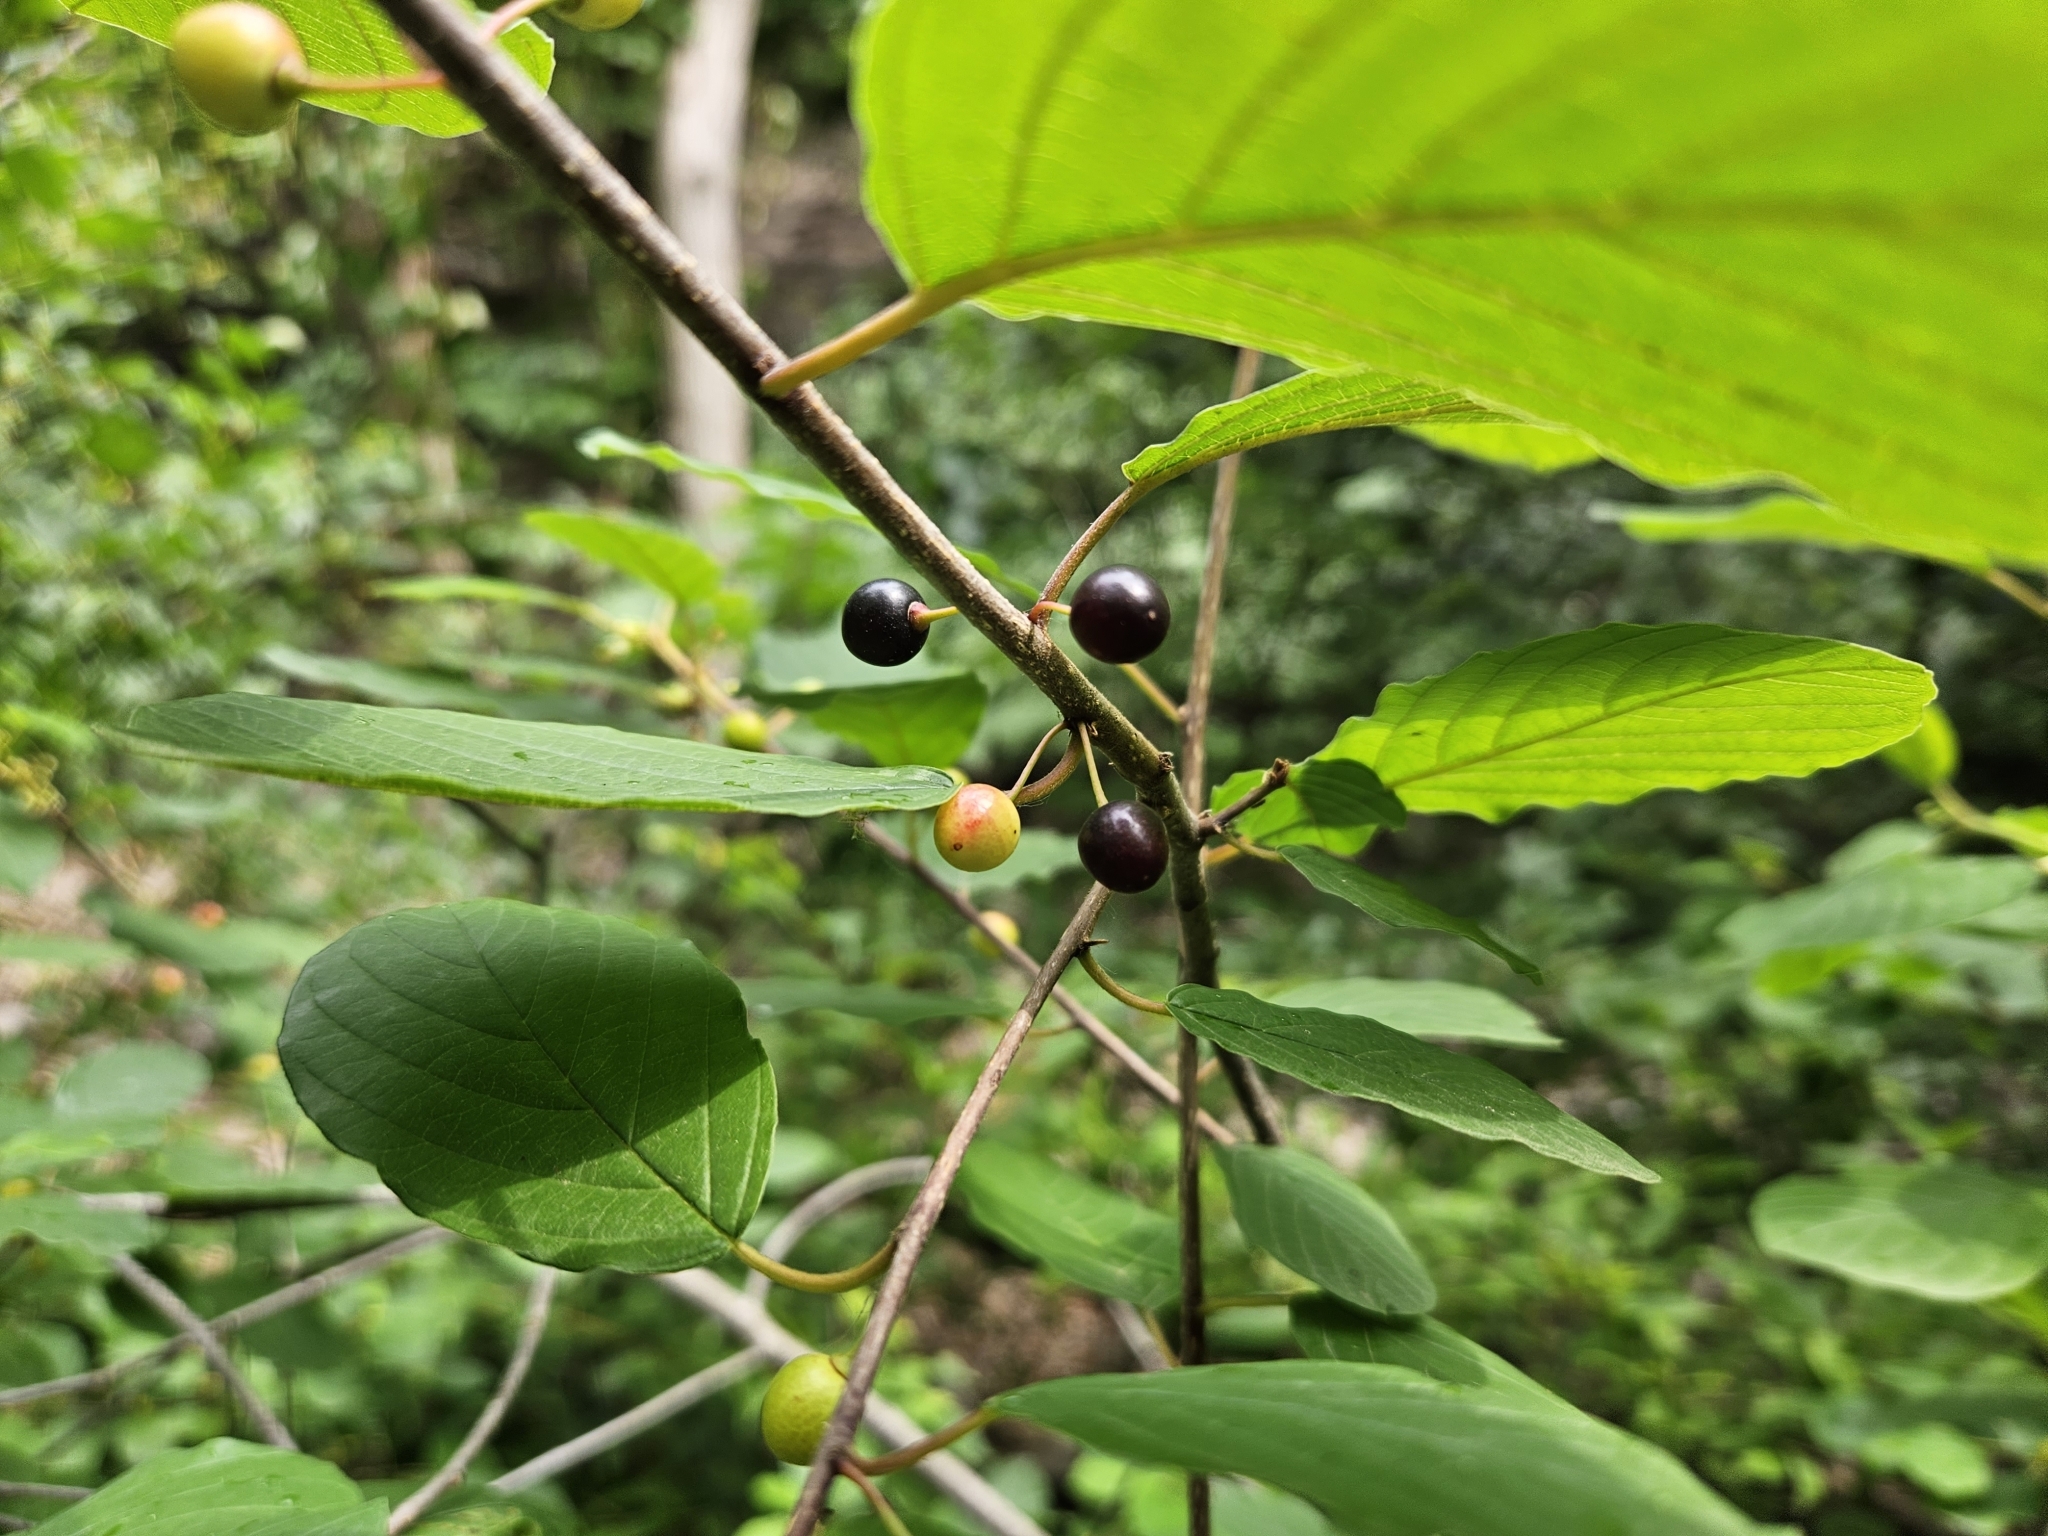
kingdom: Plantae
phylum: Tracheophyta
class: Magnoliopsida
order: Rosales
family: Rhamnaceae
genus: Frangula
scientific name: Frangula alnus
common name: Alder buckthorn
